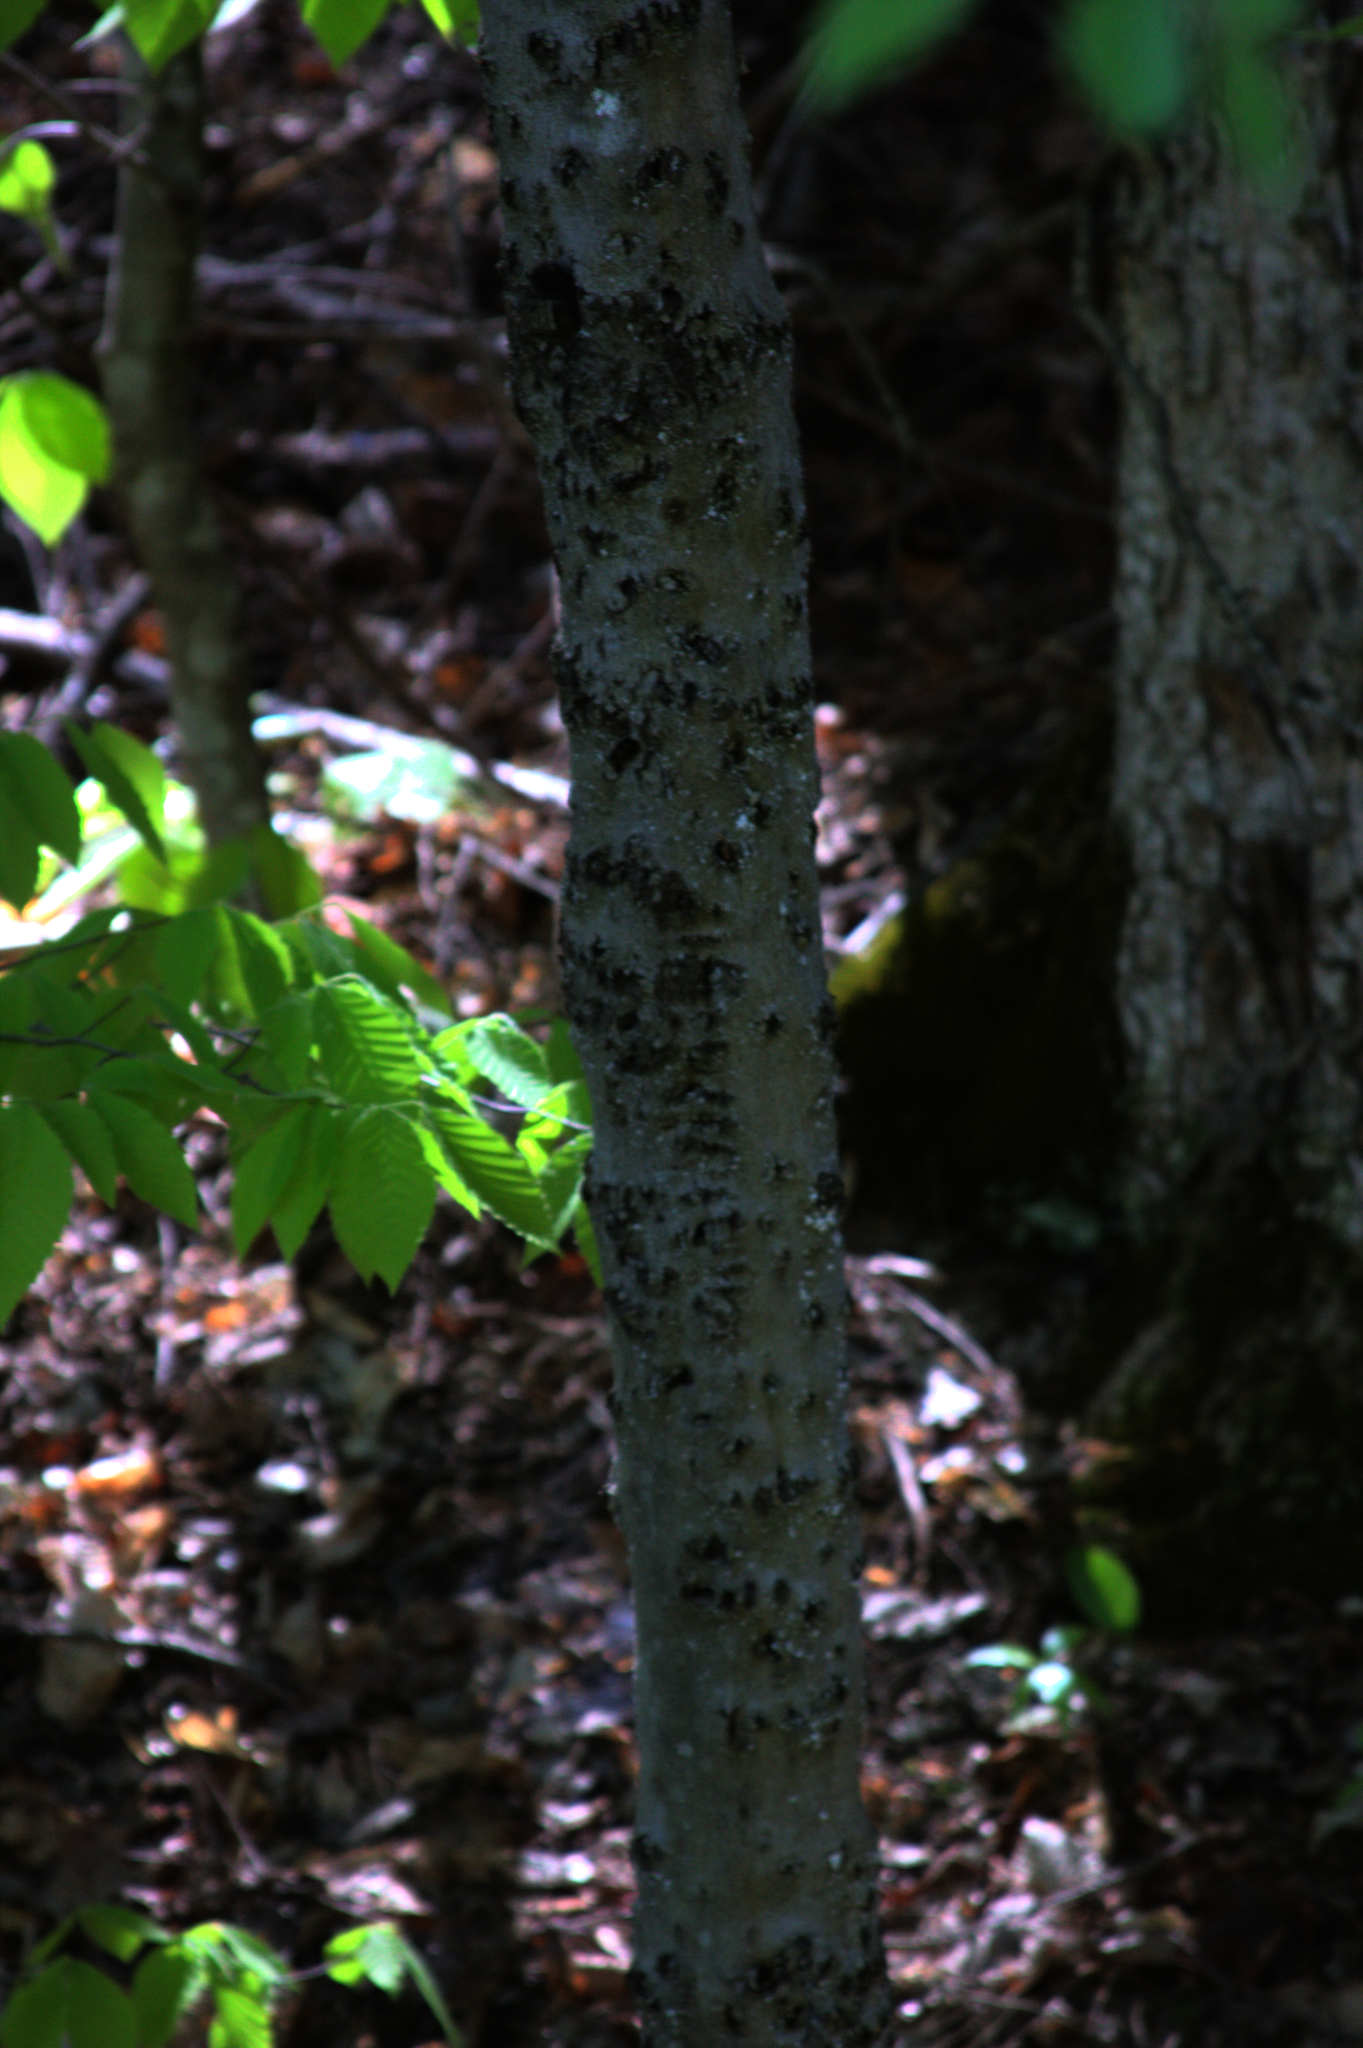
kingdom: Plantae
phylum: Tracheophyta
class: Magnoliopsida
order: Fagales
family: Fagaceae
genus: Fagus
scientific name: Fagus grandifolia
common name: American beech
